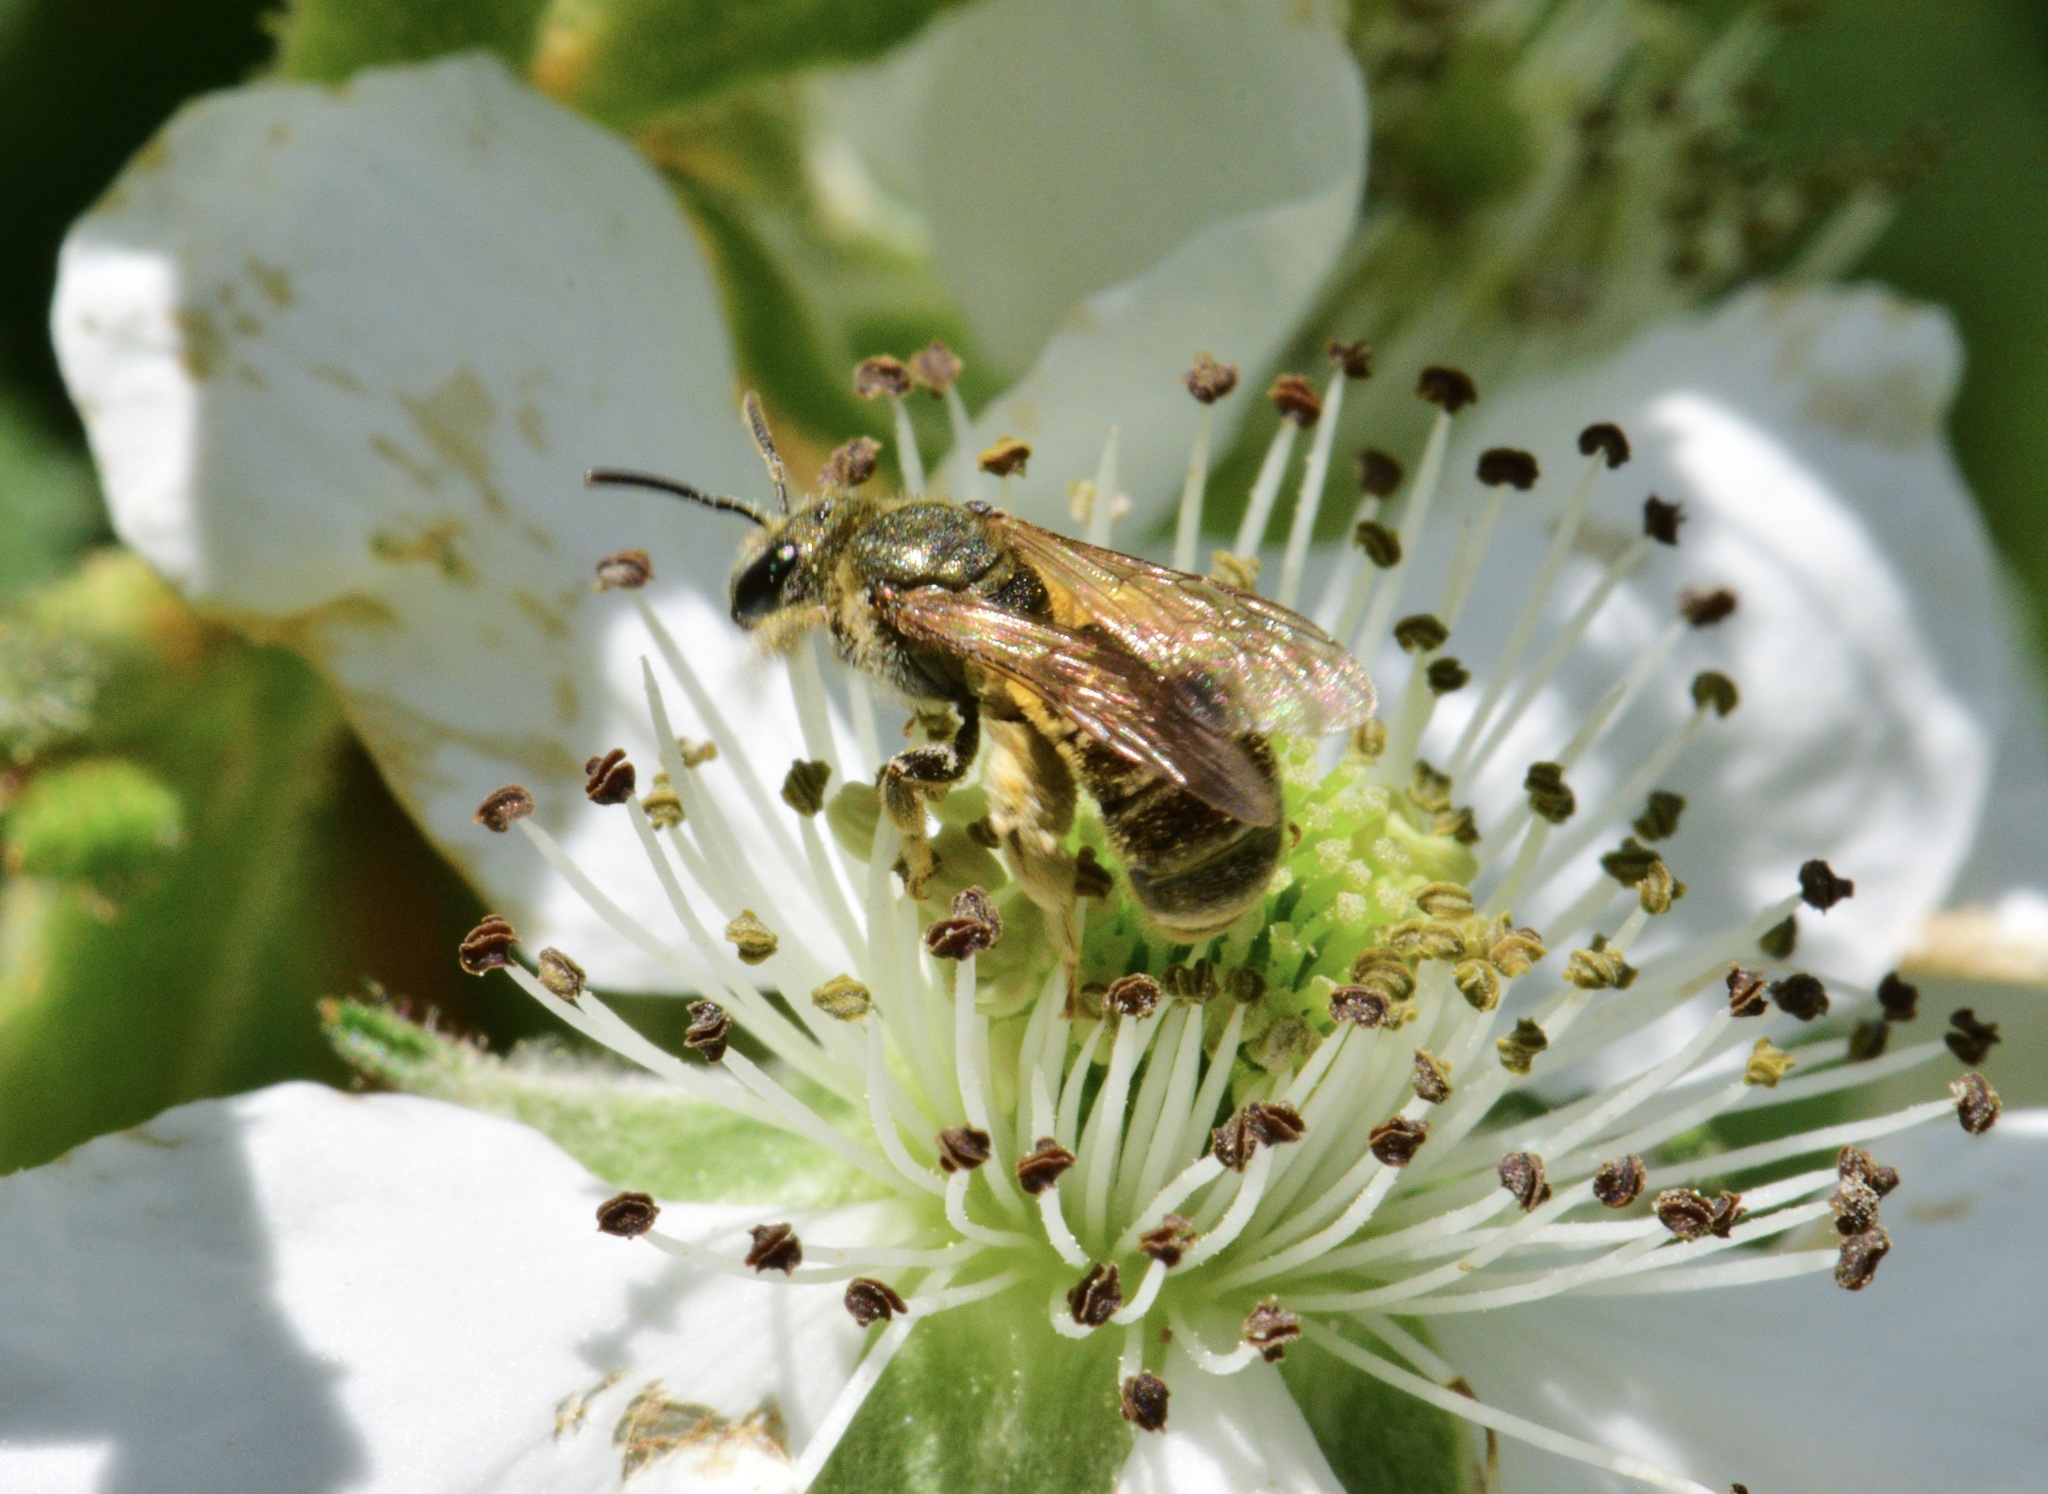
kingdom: Animalia
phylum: Arthropoda
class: Insecta
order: Hymenoptera
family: Halictidae
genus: Halictus
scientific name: Halictus confusus
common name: Southern bronze furrow bee
